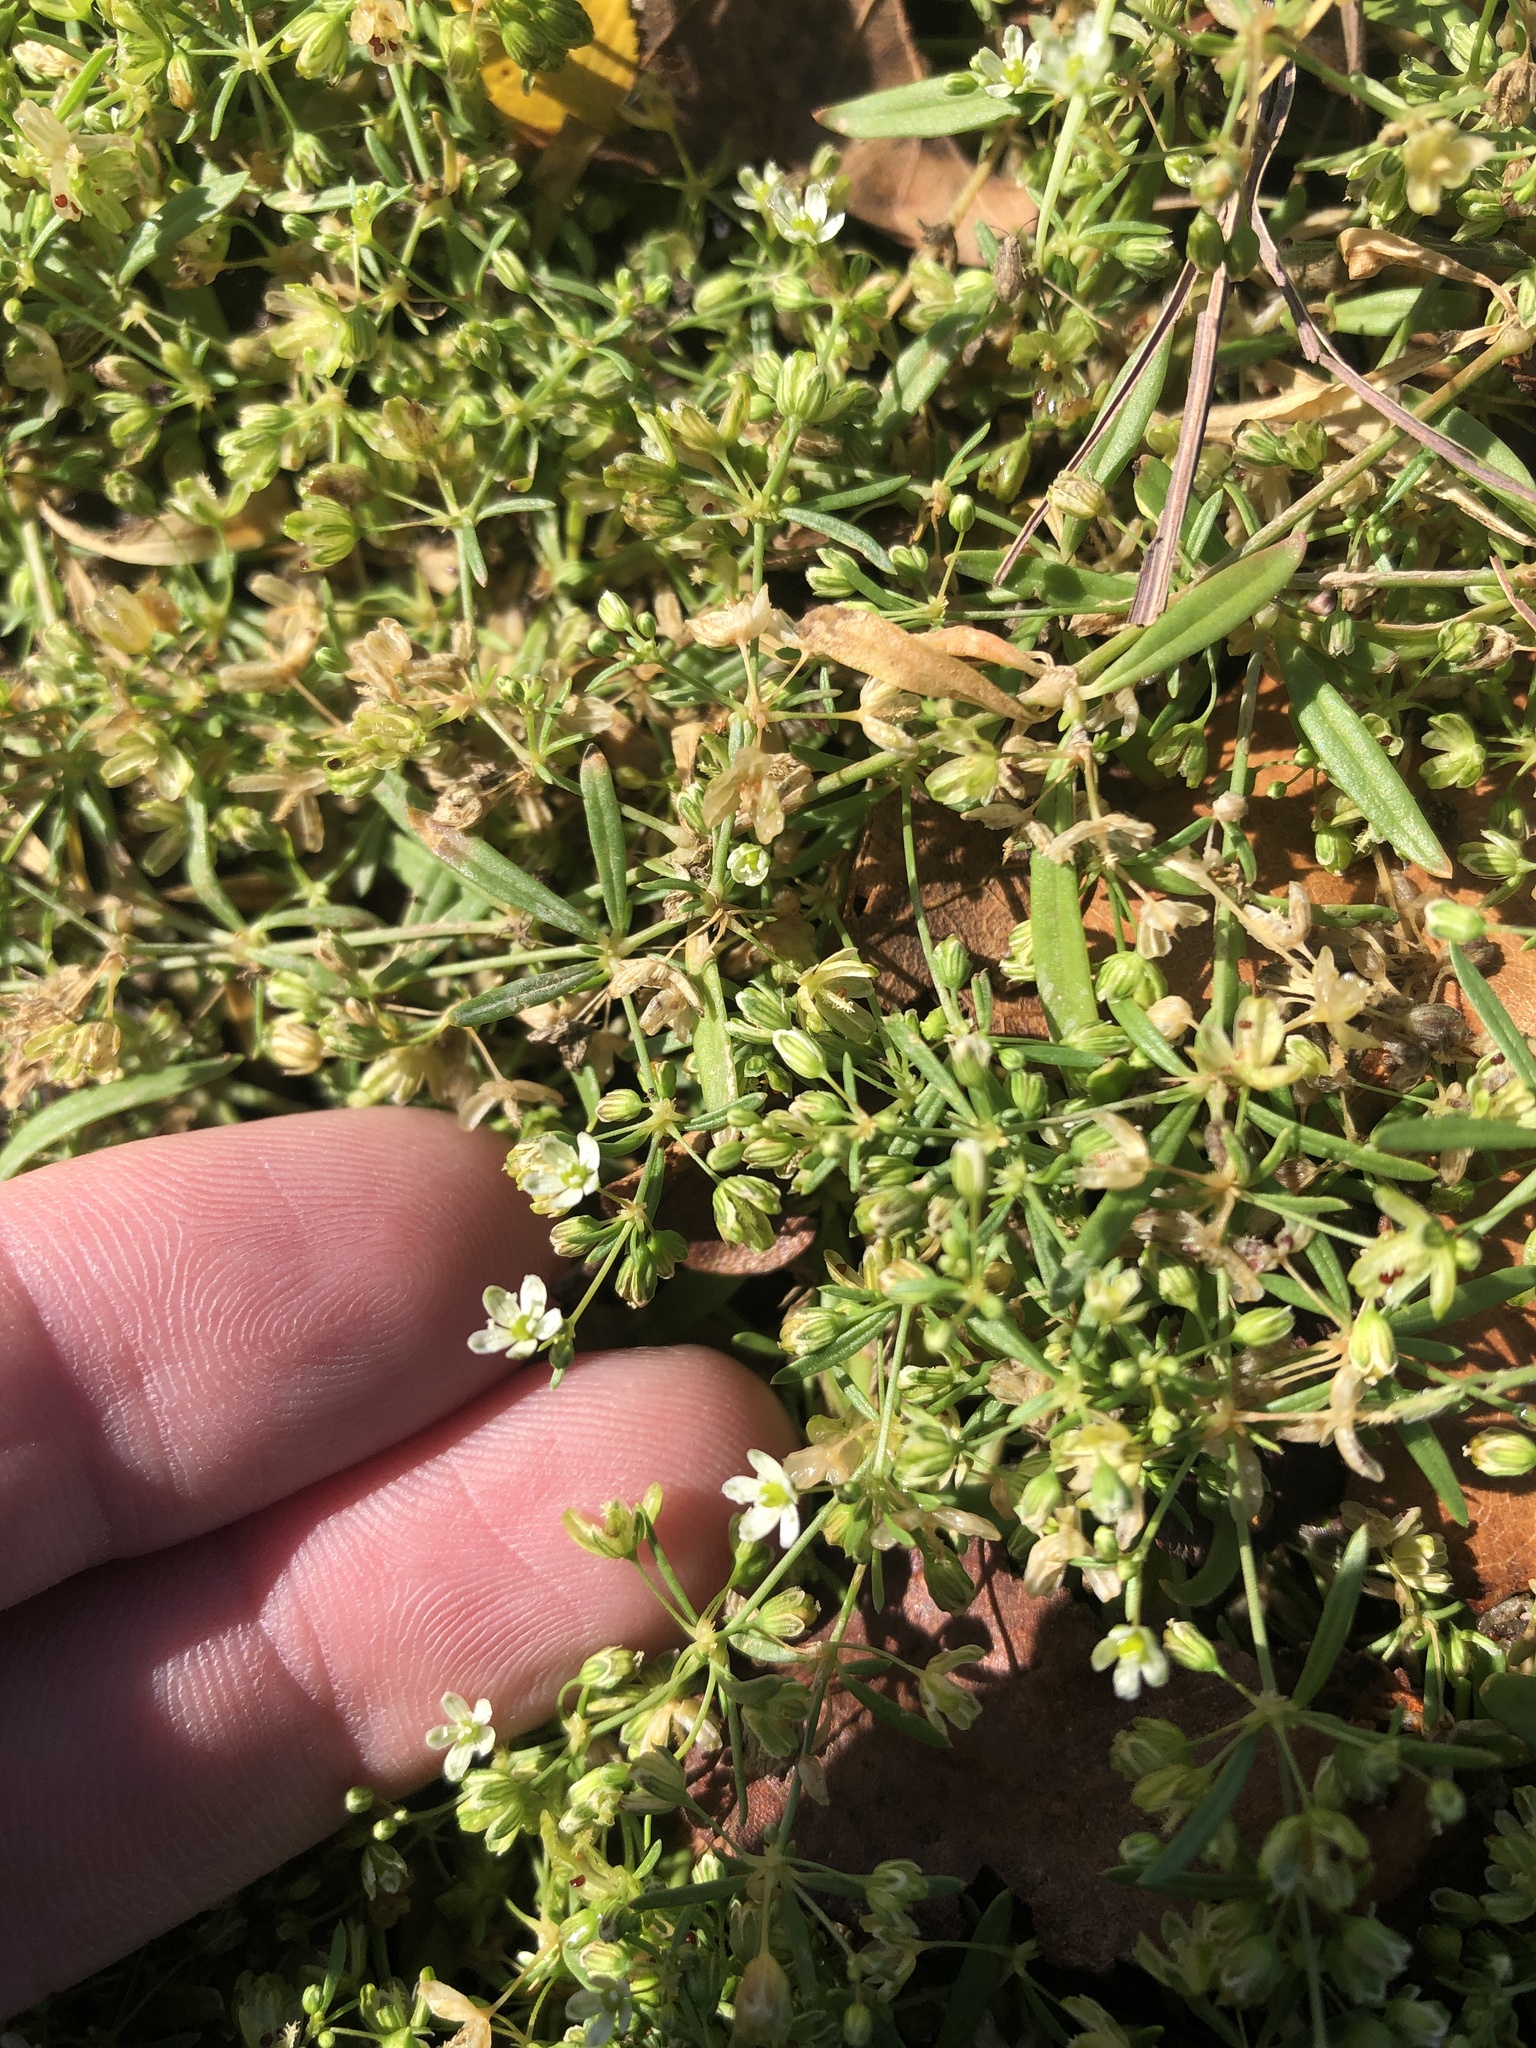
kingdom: Plantae
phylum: Tracheophyta
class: Magnoliopsida
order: Caryophyllales
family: Molluginaceae
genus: Mollugo
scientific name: Mollugo verticillata
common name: Green carpetweed
